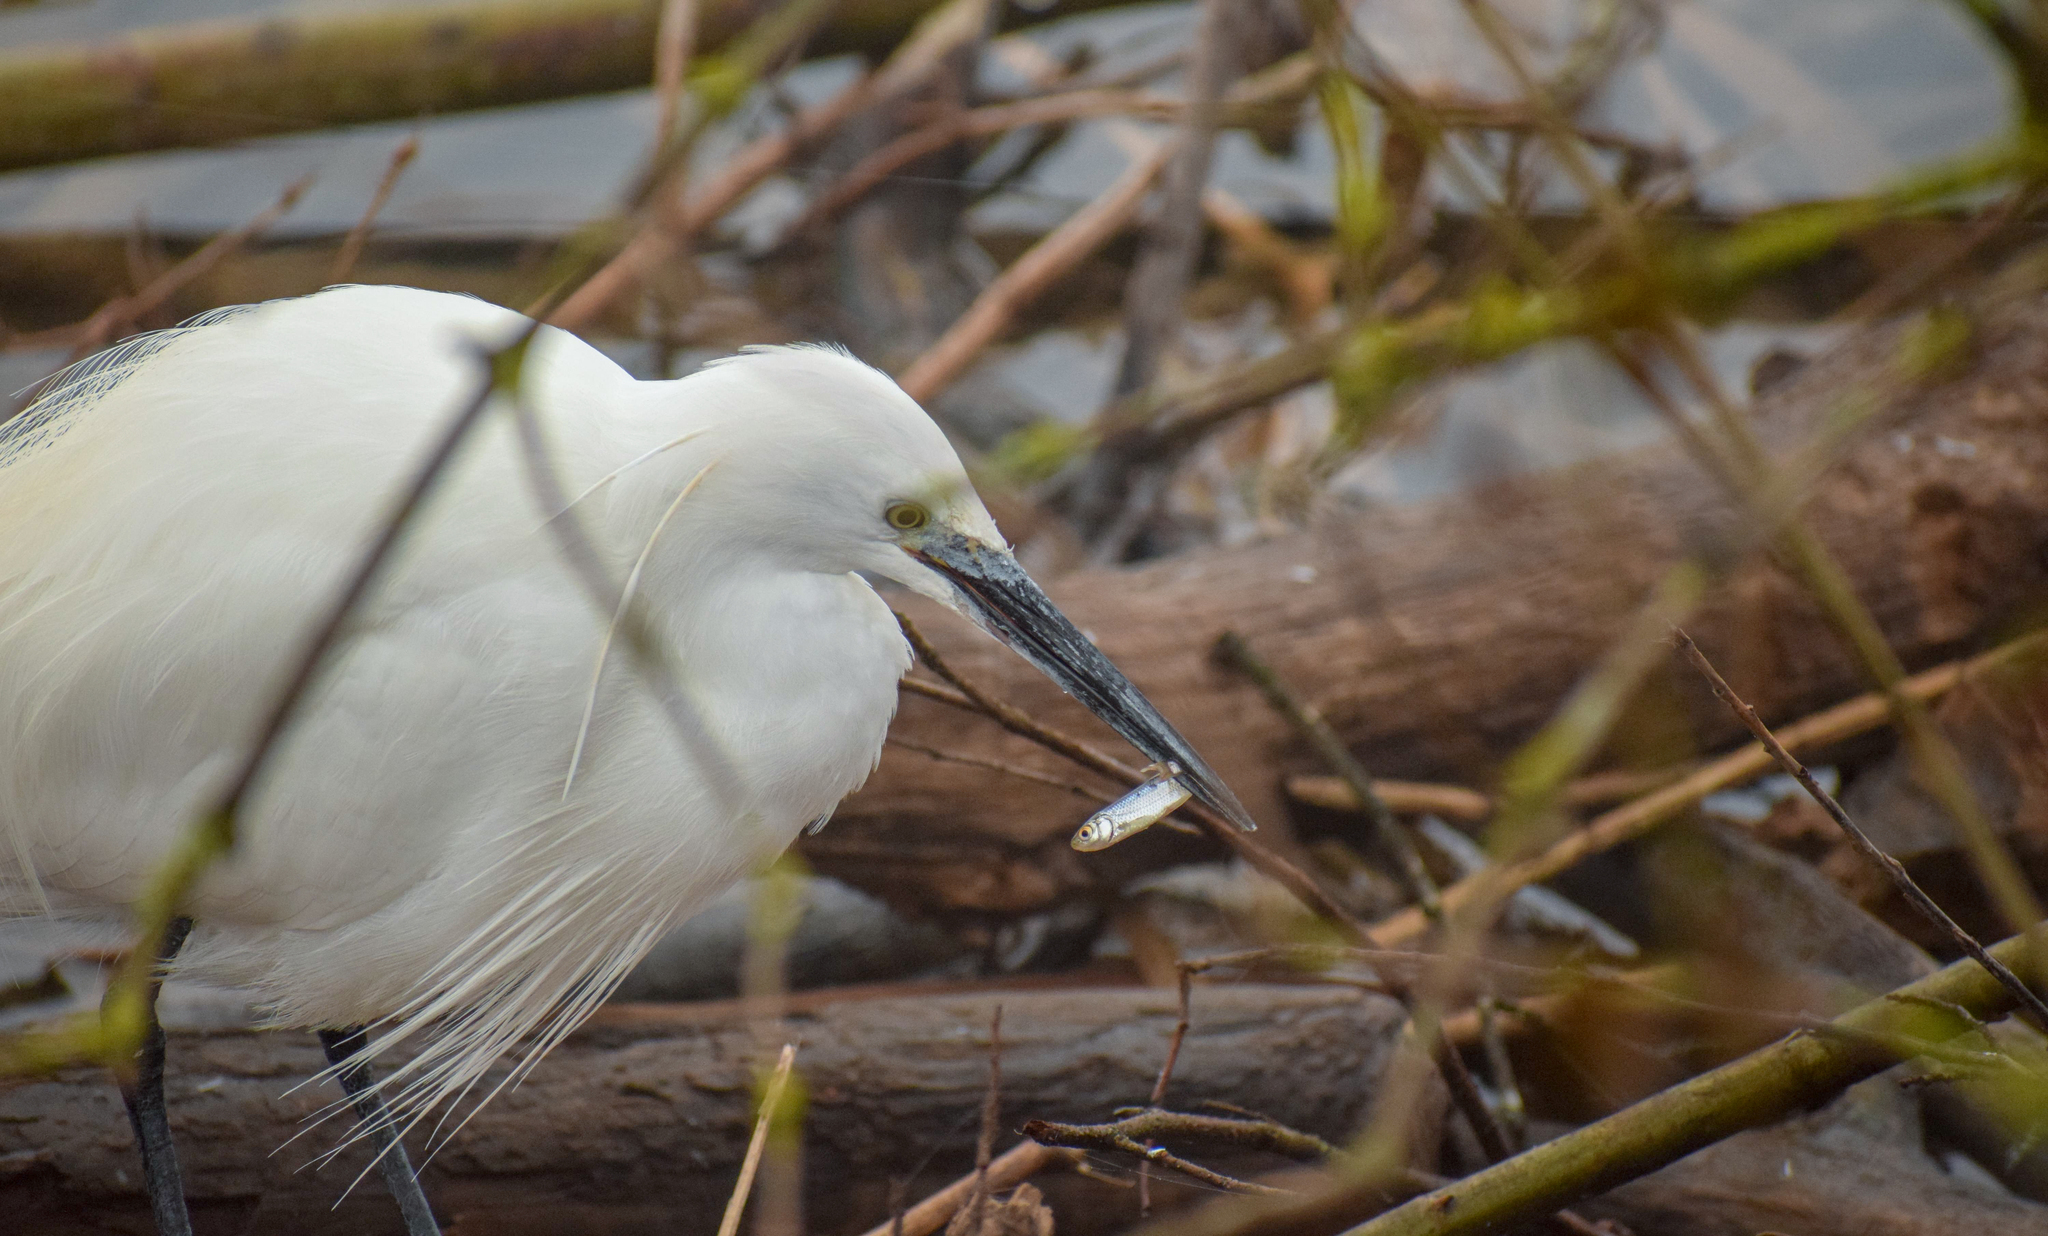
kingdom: Animalia
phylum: Chordata
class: Aves
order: Pelecaniformes
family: Ardeidae
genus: Egretta
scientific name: Egretta garzetta
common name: Little egret
